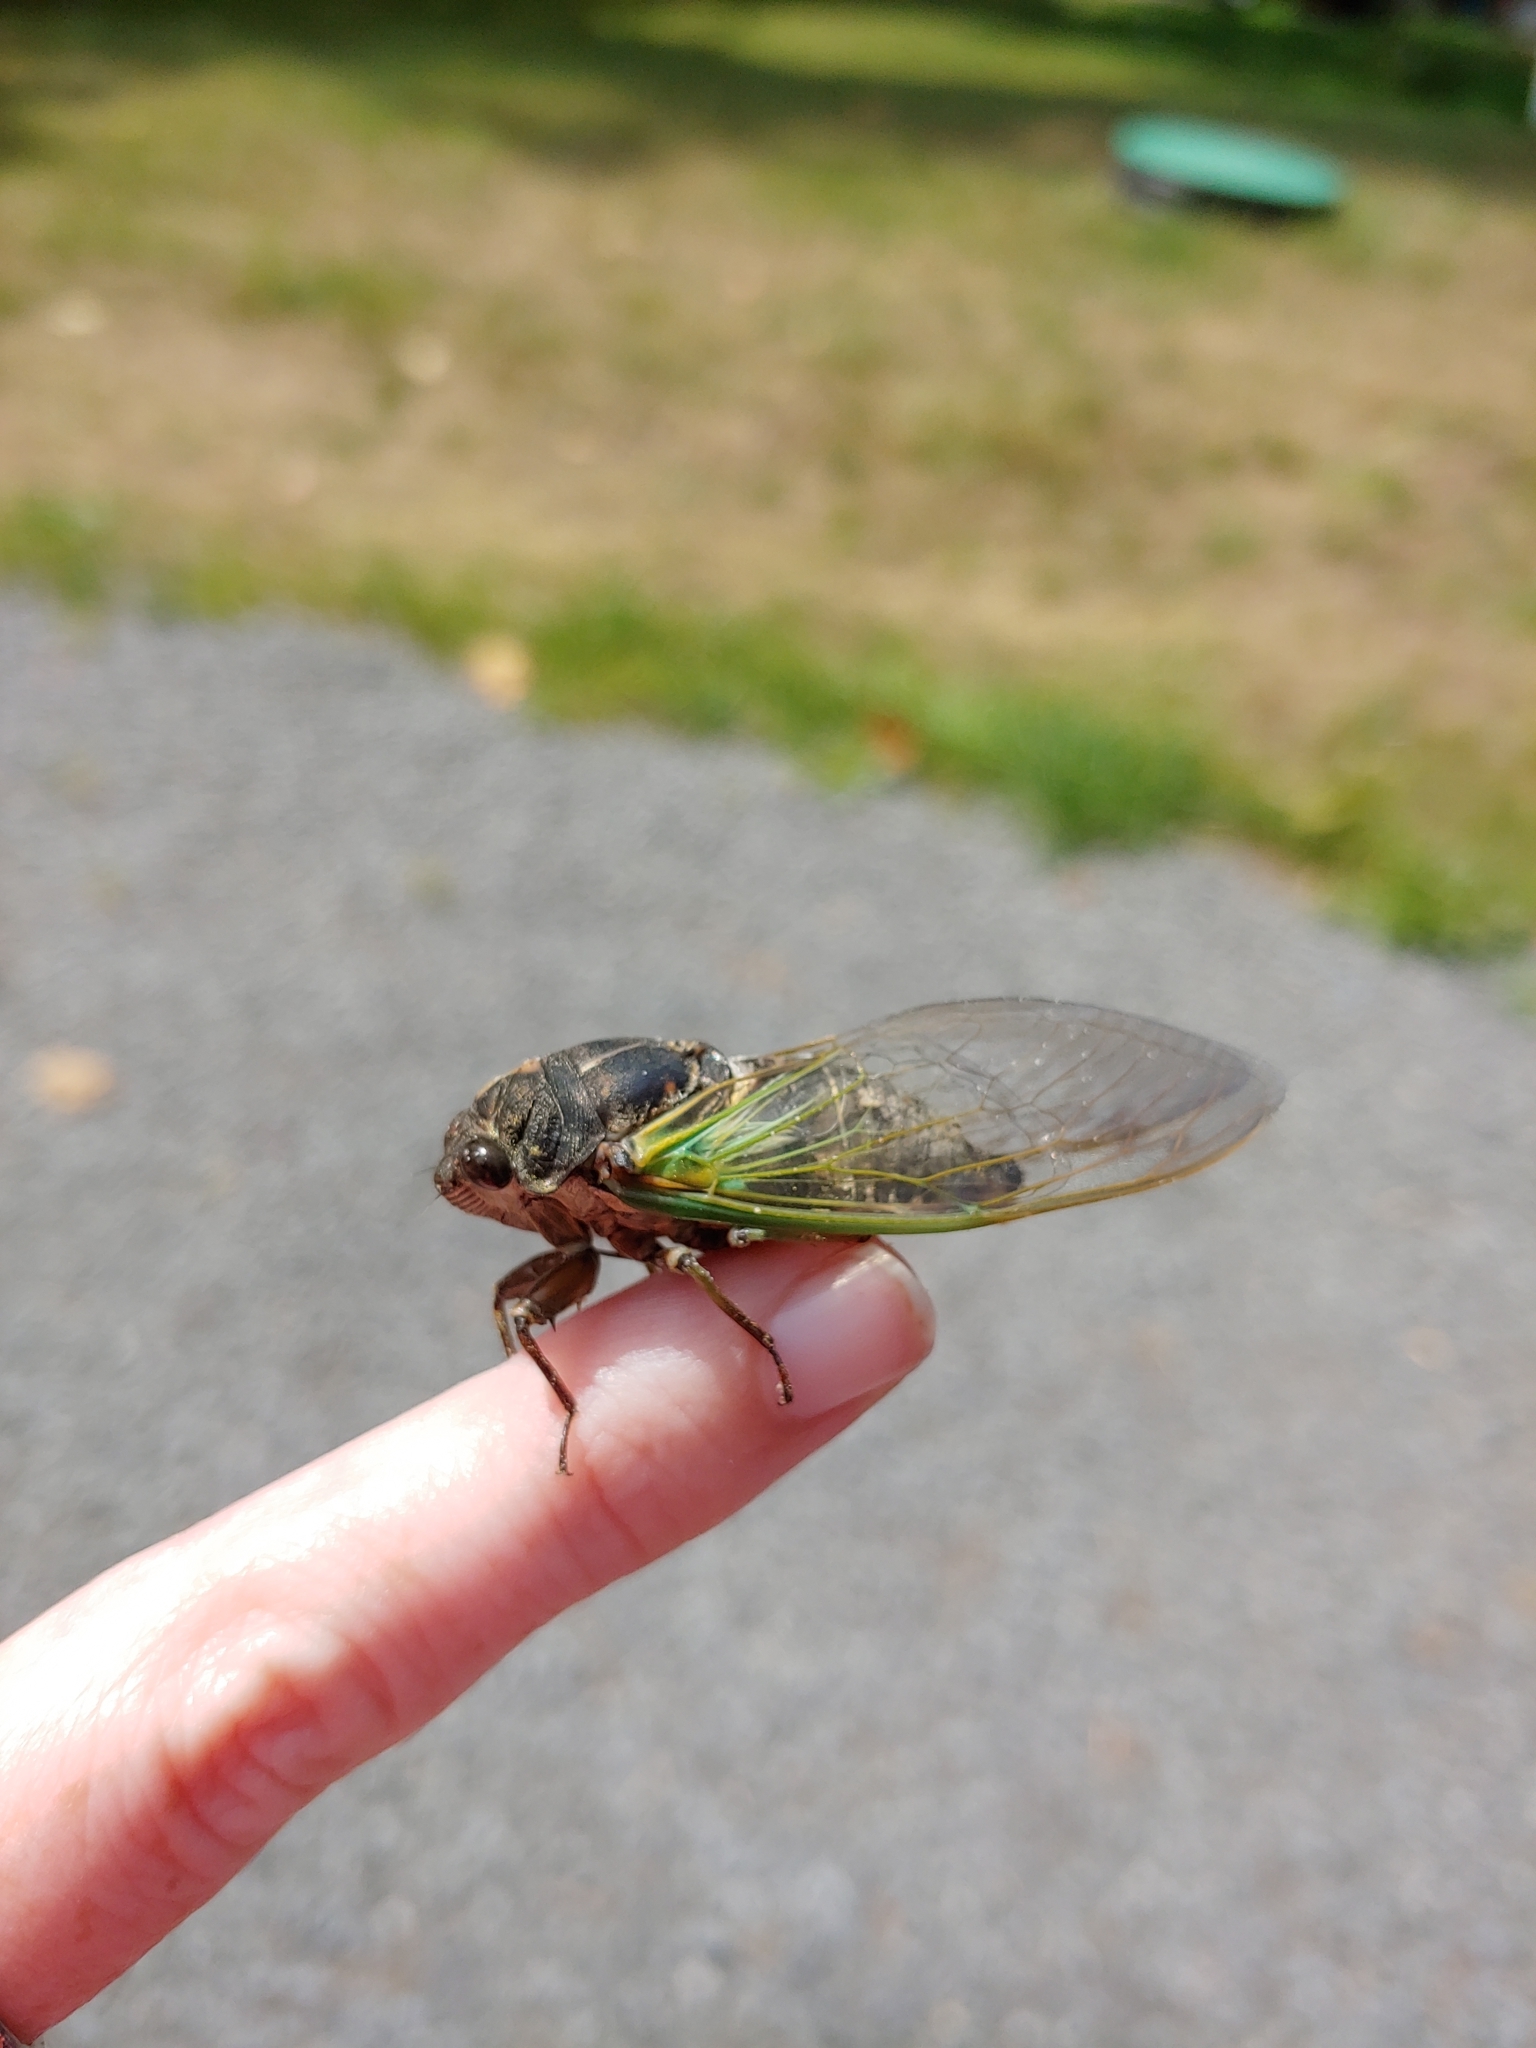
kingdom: Animalia
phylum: Arthropoda
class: Insecta
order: Hemiptera
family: Cicadidae
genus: Neotibicen
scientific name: Neotibicen lyricen
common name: Lyric cicada
